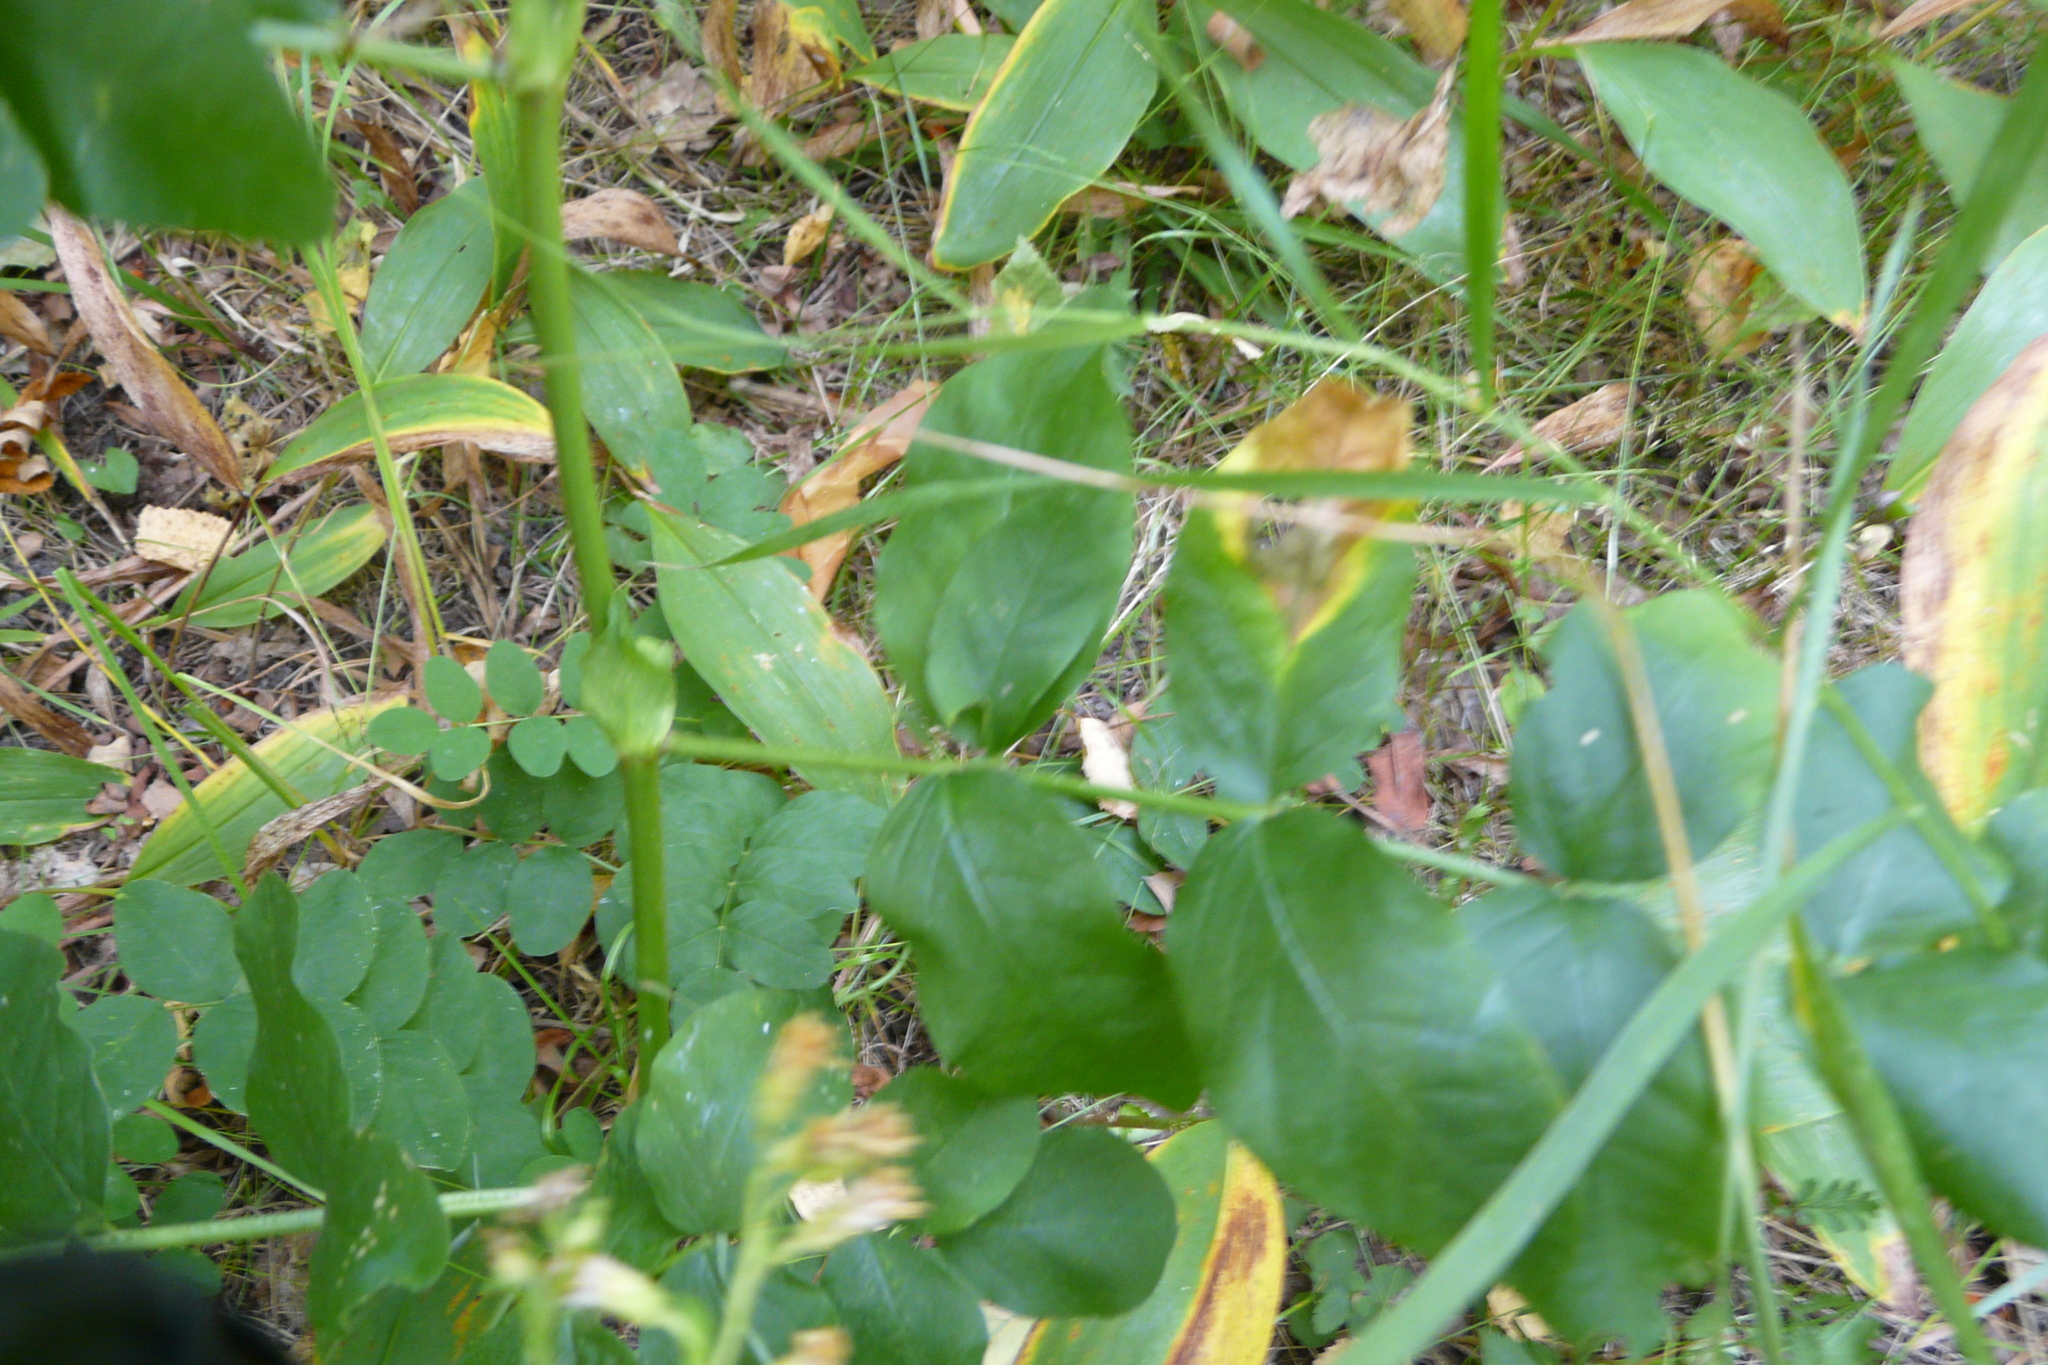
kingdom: Plantae
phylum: Tracheophyta
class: Magnoliopsida
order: Fabales
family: Fabaceae
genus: Astragalus
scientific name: Astragalus glycyphyllos
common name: Wild liquorice
